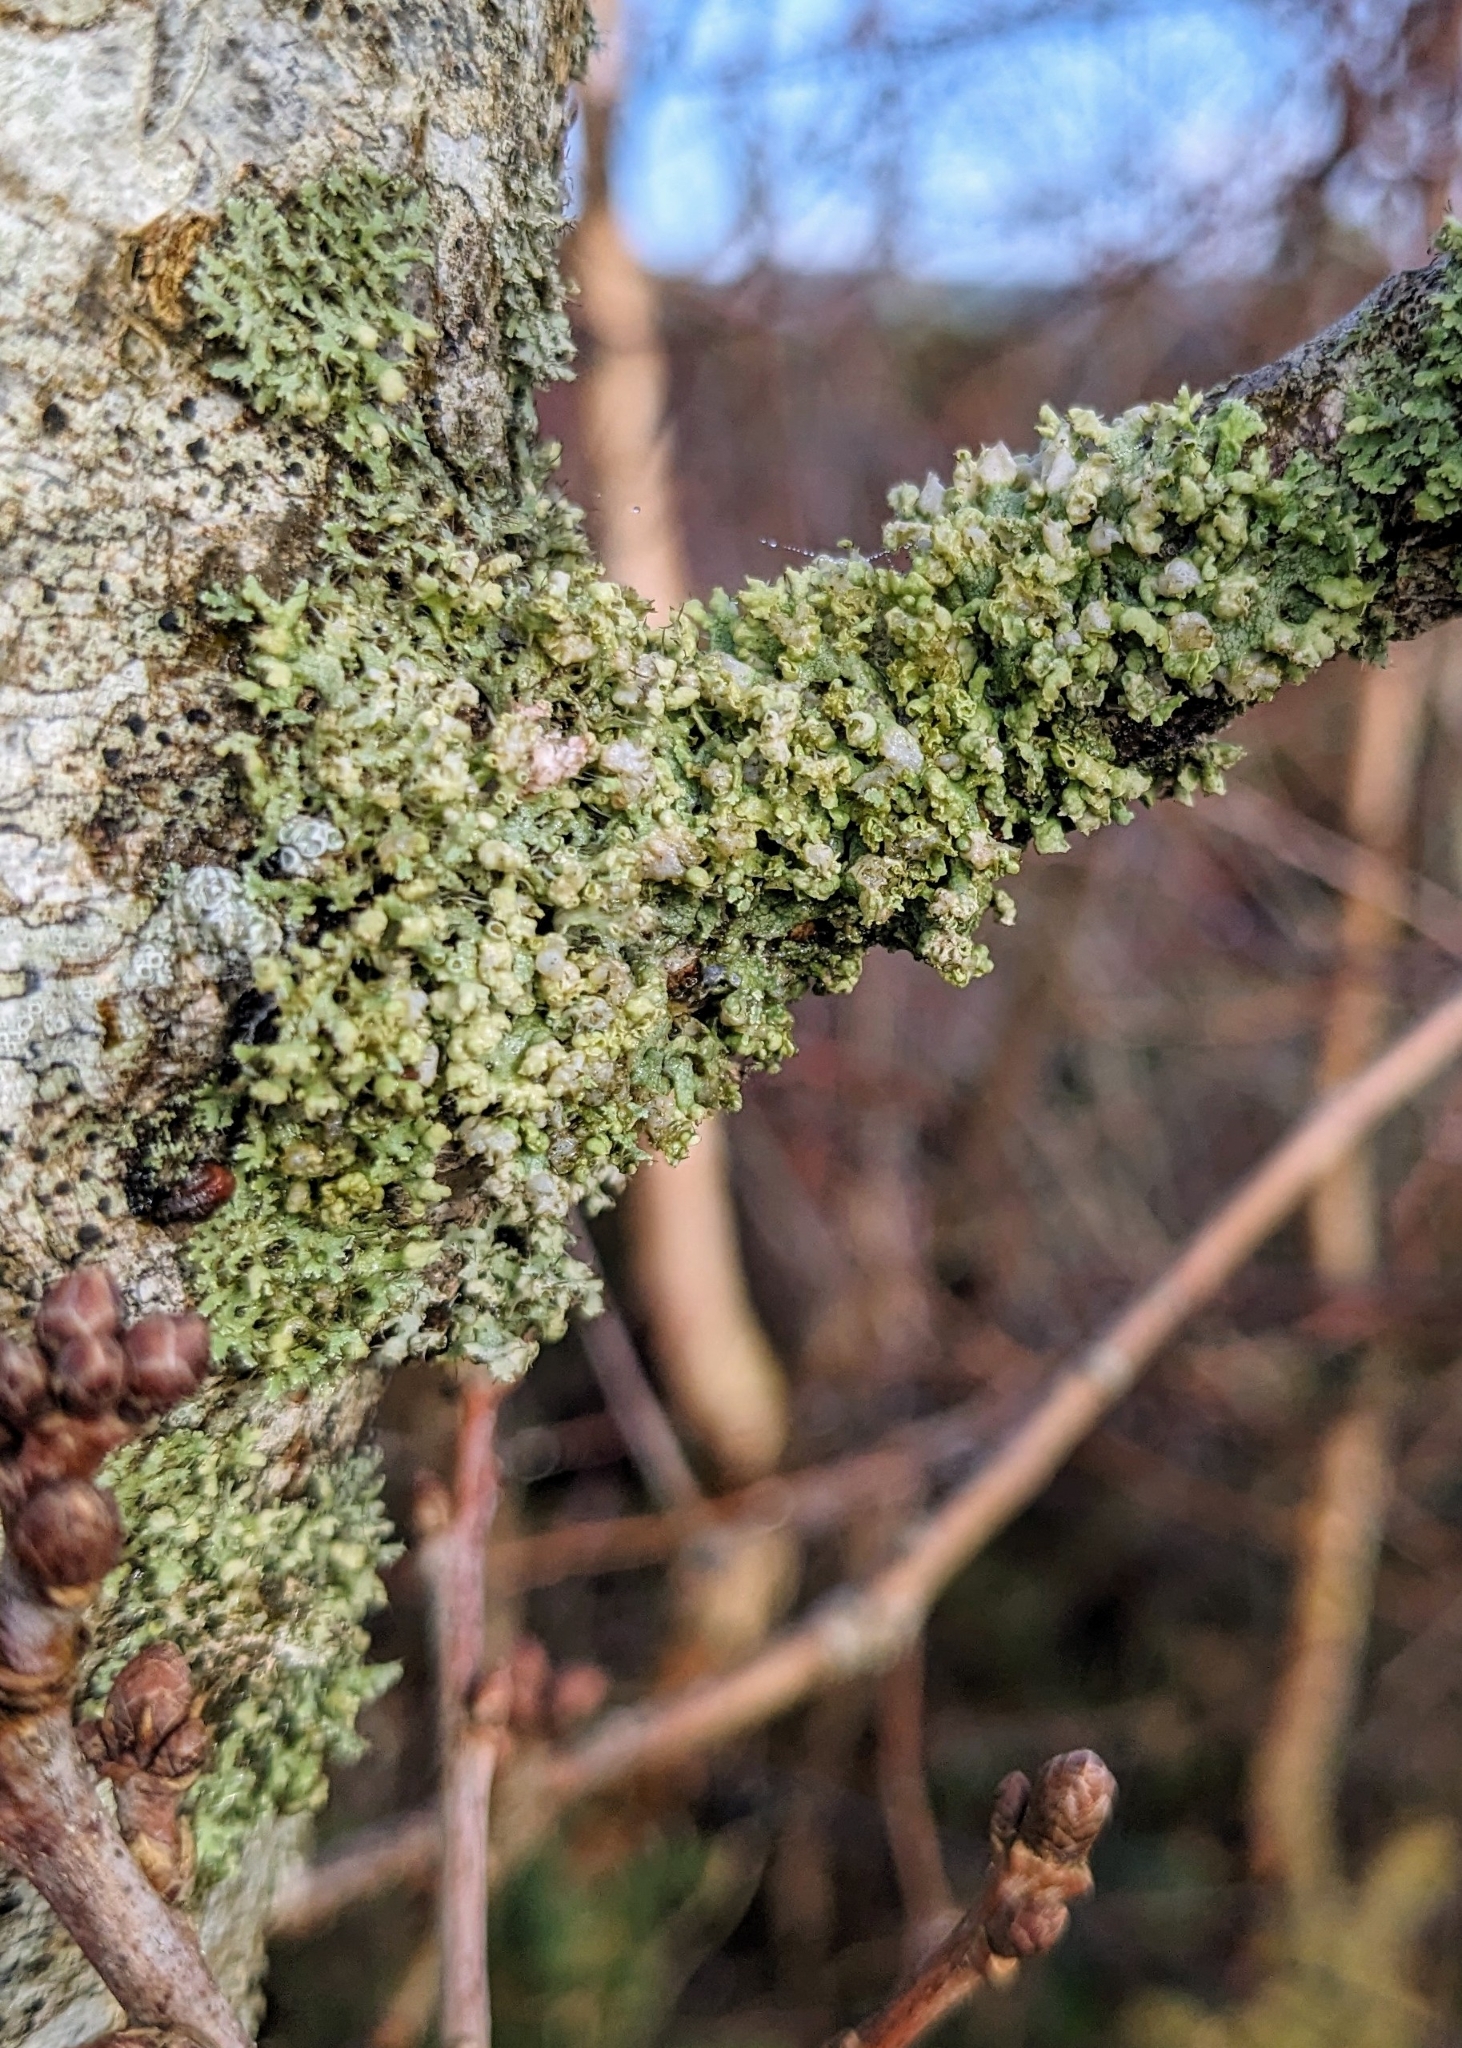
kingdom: Fungi
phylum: Ascomycota
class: Lecanoromycetes
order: Caliciales
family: Physciaceae
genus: Physcia
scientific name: Physcia adscendens
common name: Hooded rosette lichen
